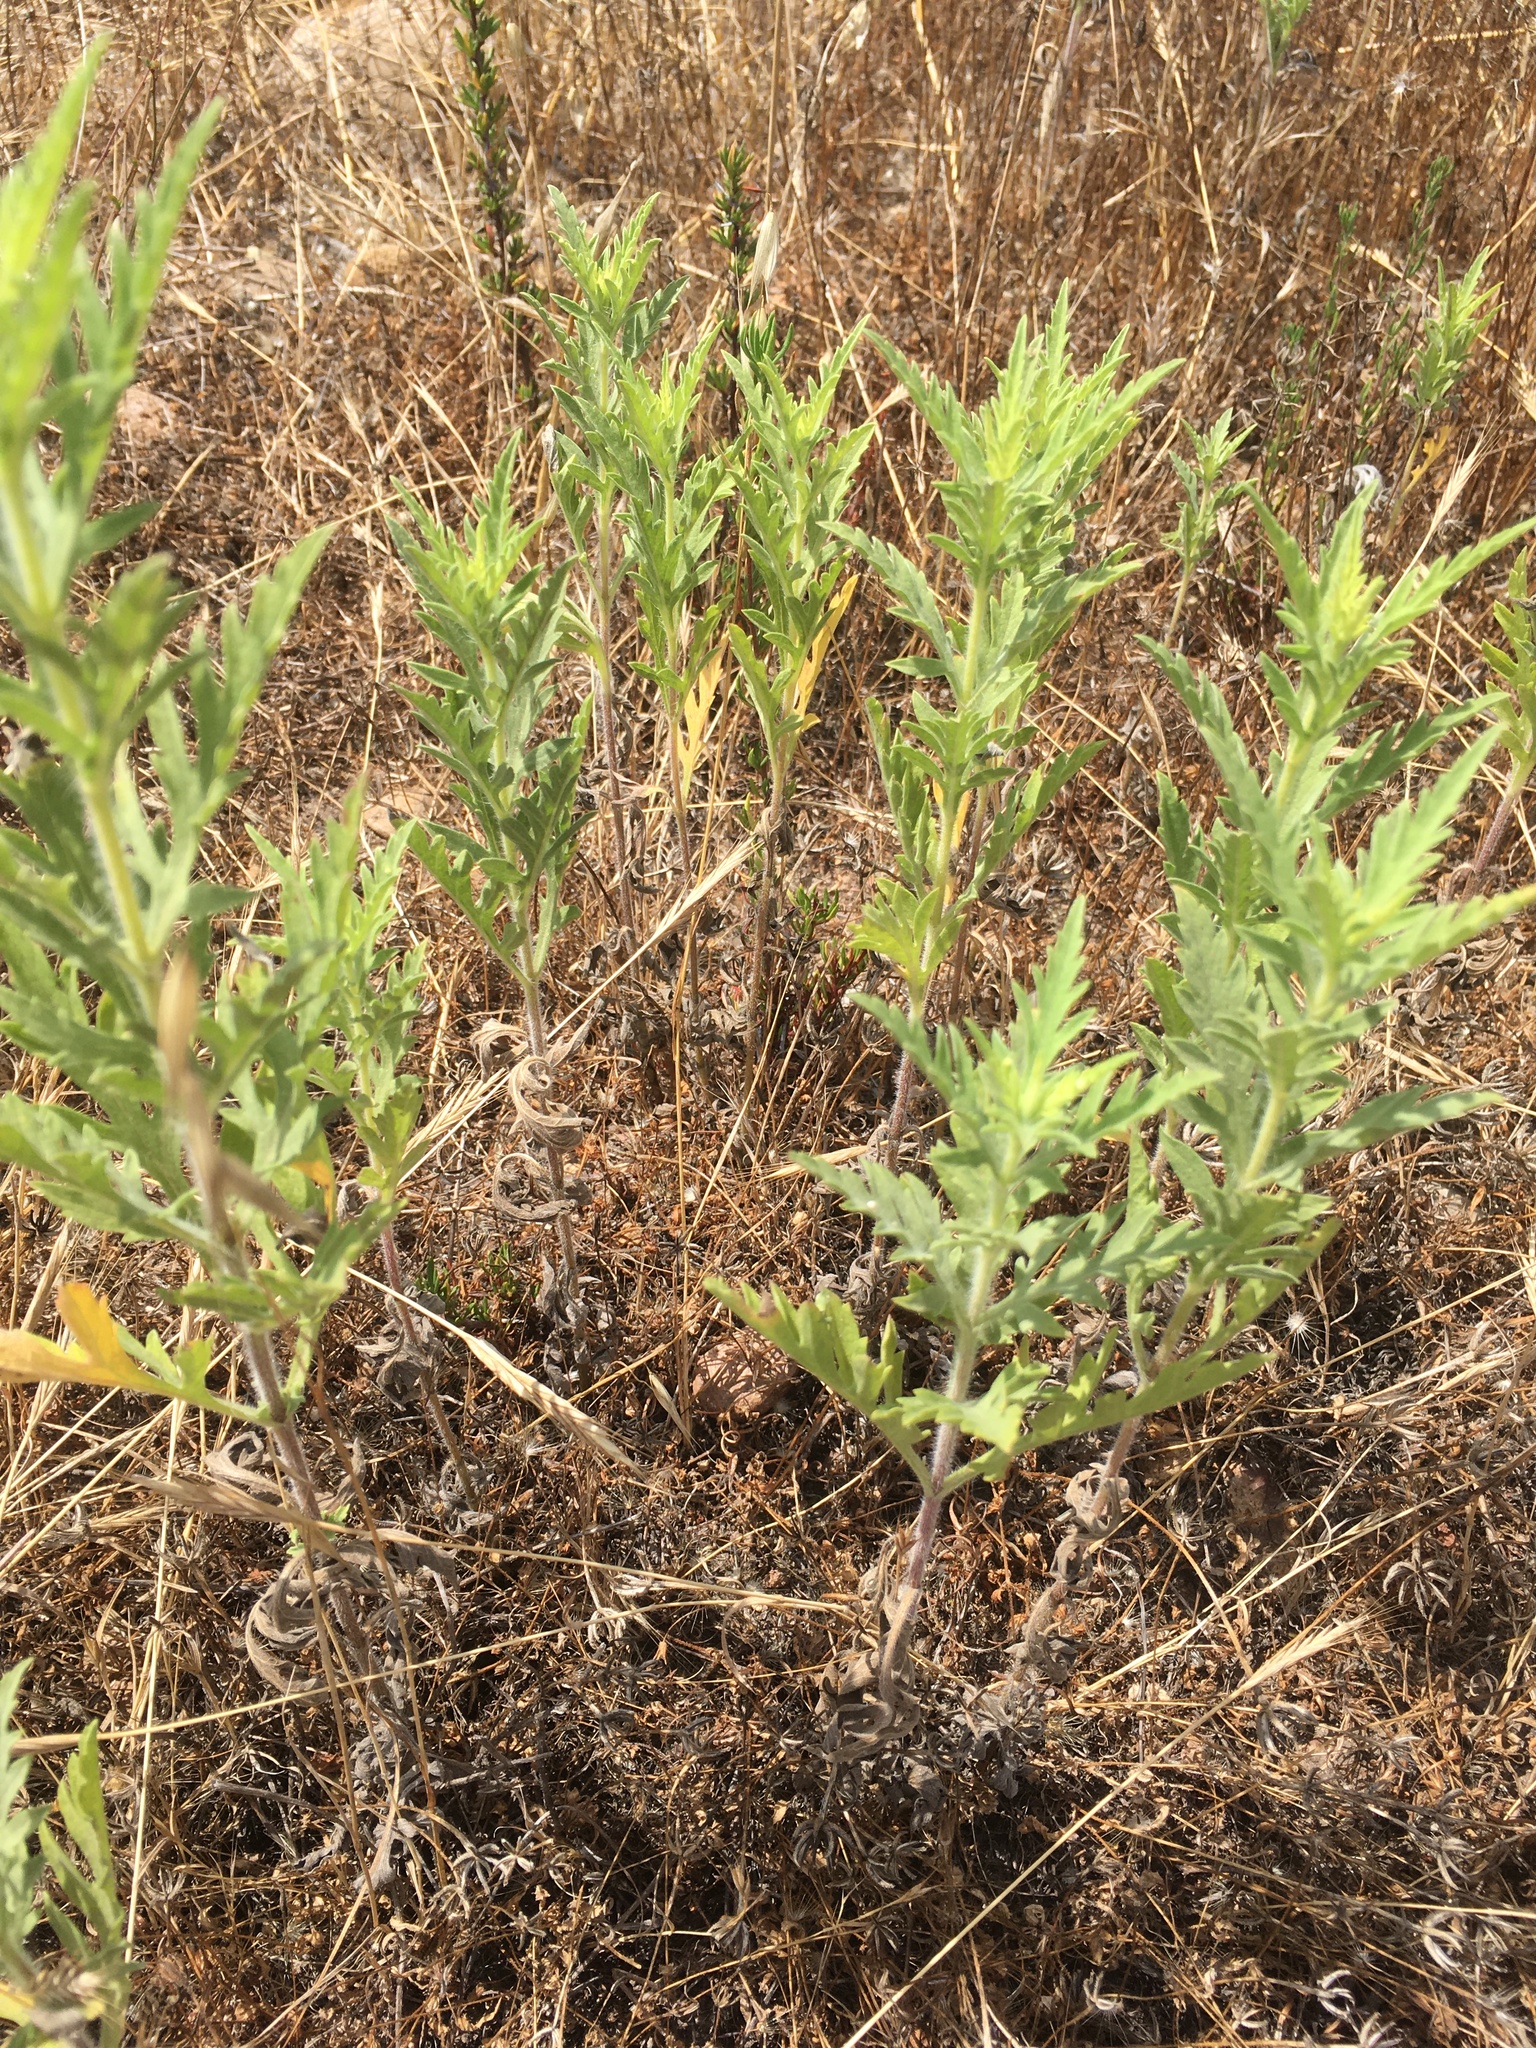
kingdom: Plantae
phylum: Tracheophyta
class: Magnoliopsida
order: Asterales
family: Asteraceae
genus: Ambrosia
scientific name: Ambrosia psilostachya
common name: Perennial ragweed
